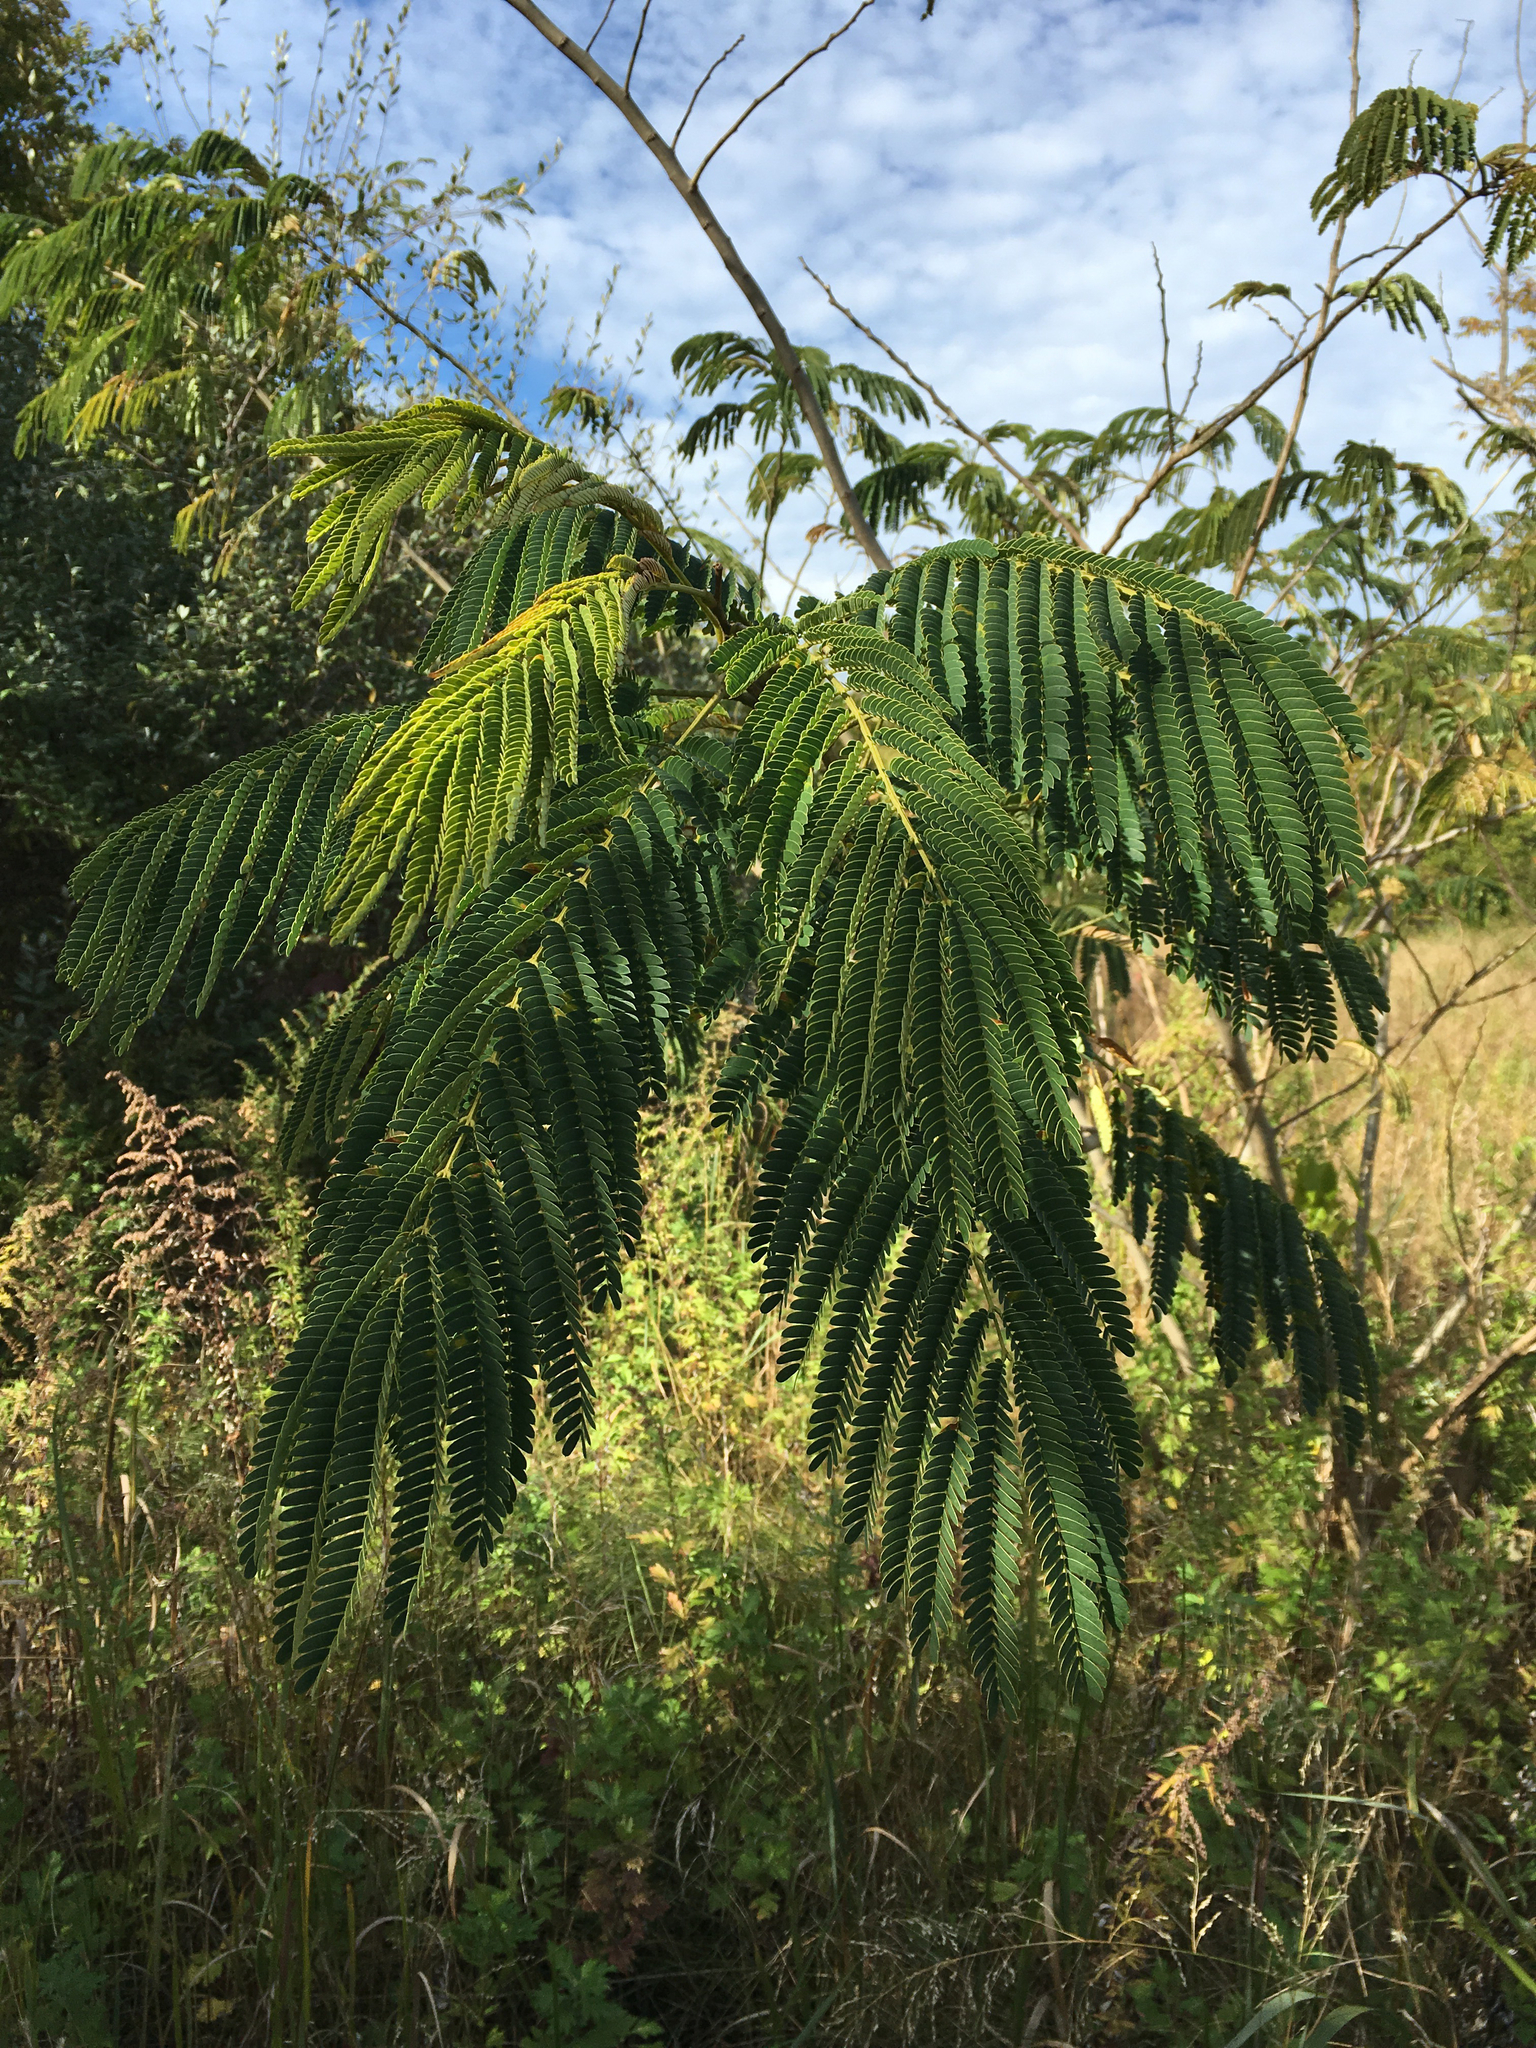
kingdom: Plantae
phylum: Tracheophyta
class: Magnoliopsida
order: Fabales
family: Fabaceae
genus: Albizia
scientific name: Albizia julibrissin
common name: Silktree
